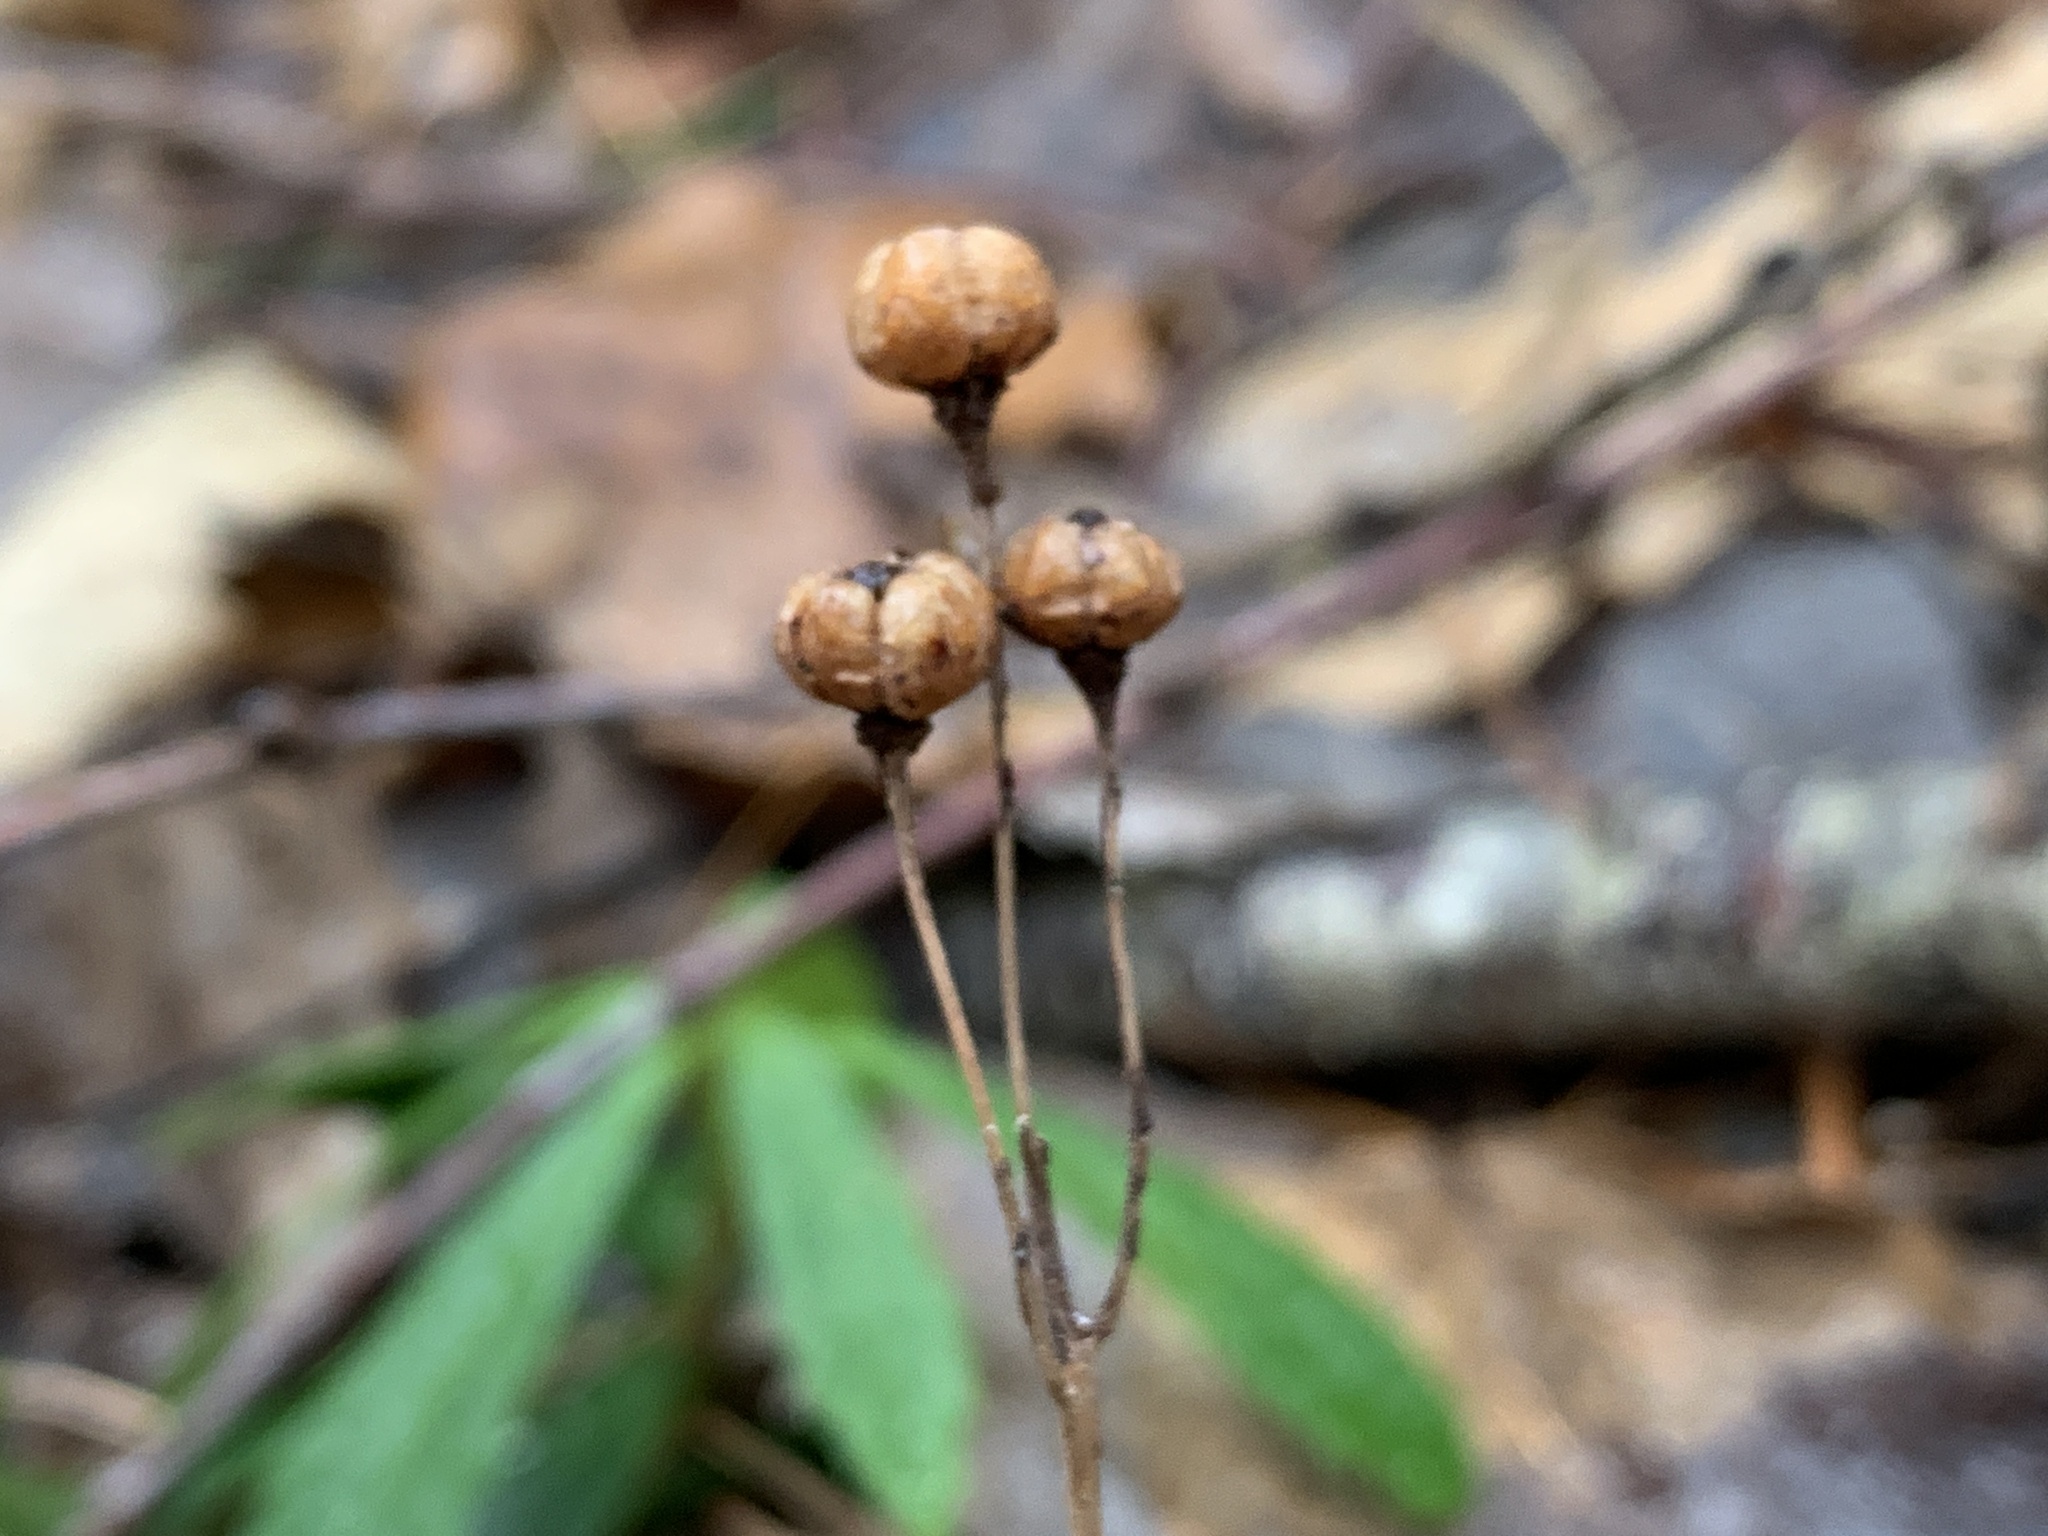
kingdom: Plantae
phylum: Tracheophyta
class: Magnoliopsida
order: Ericales
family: Ericaceae
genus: Chimaphila
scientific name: Chimaphila umbellata
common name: Pipsissewa
